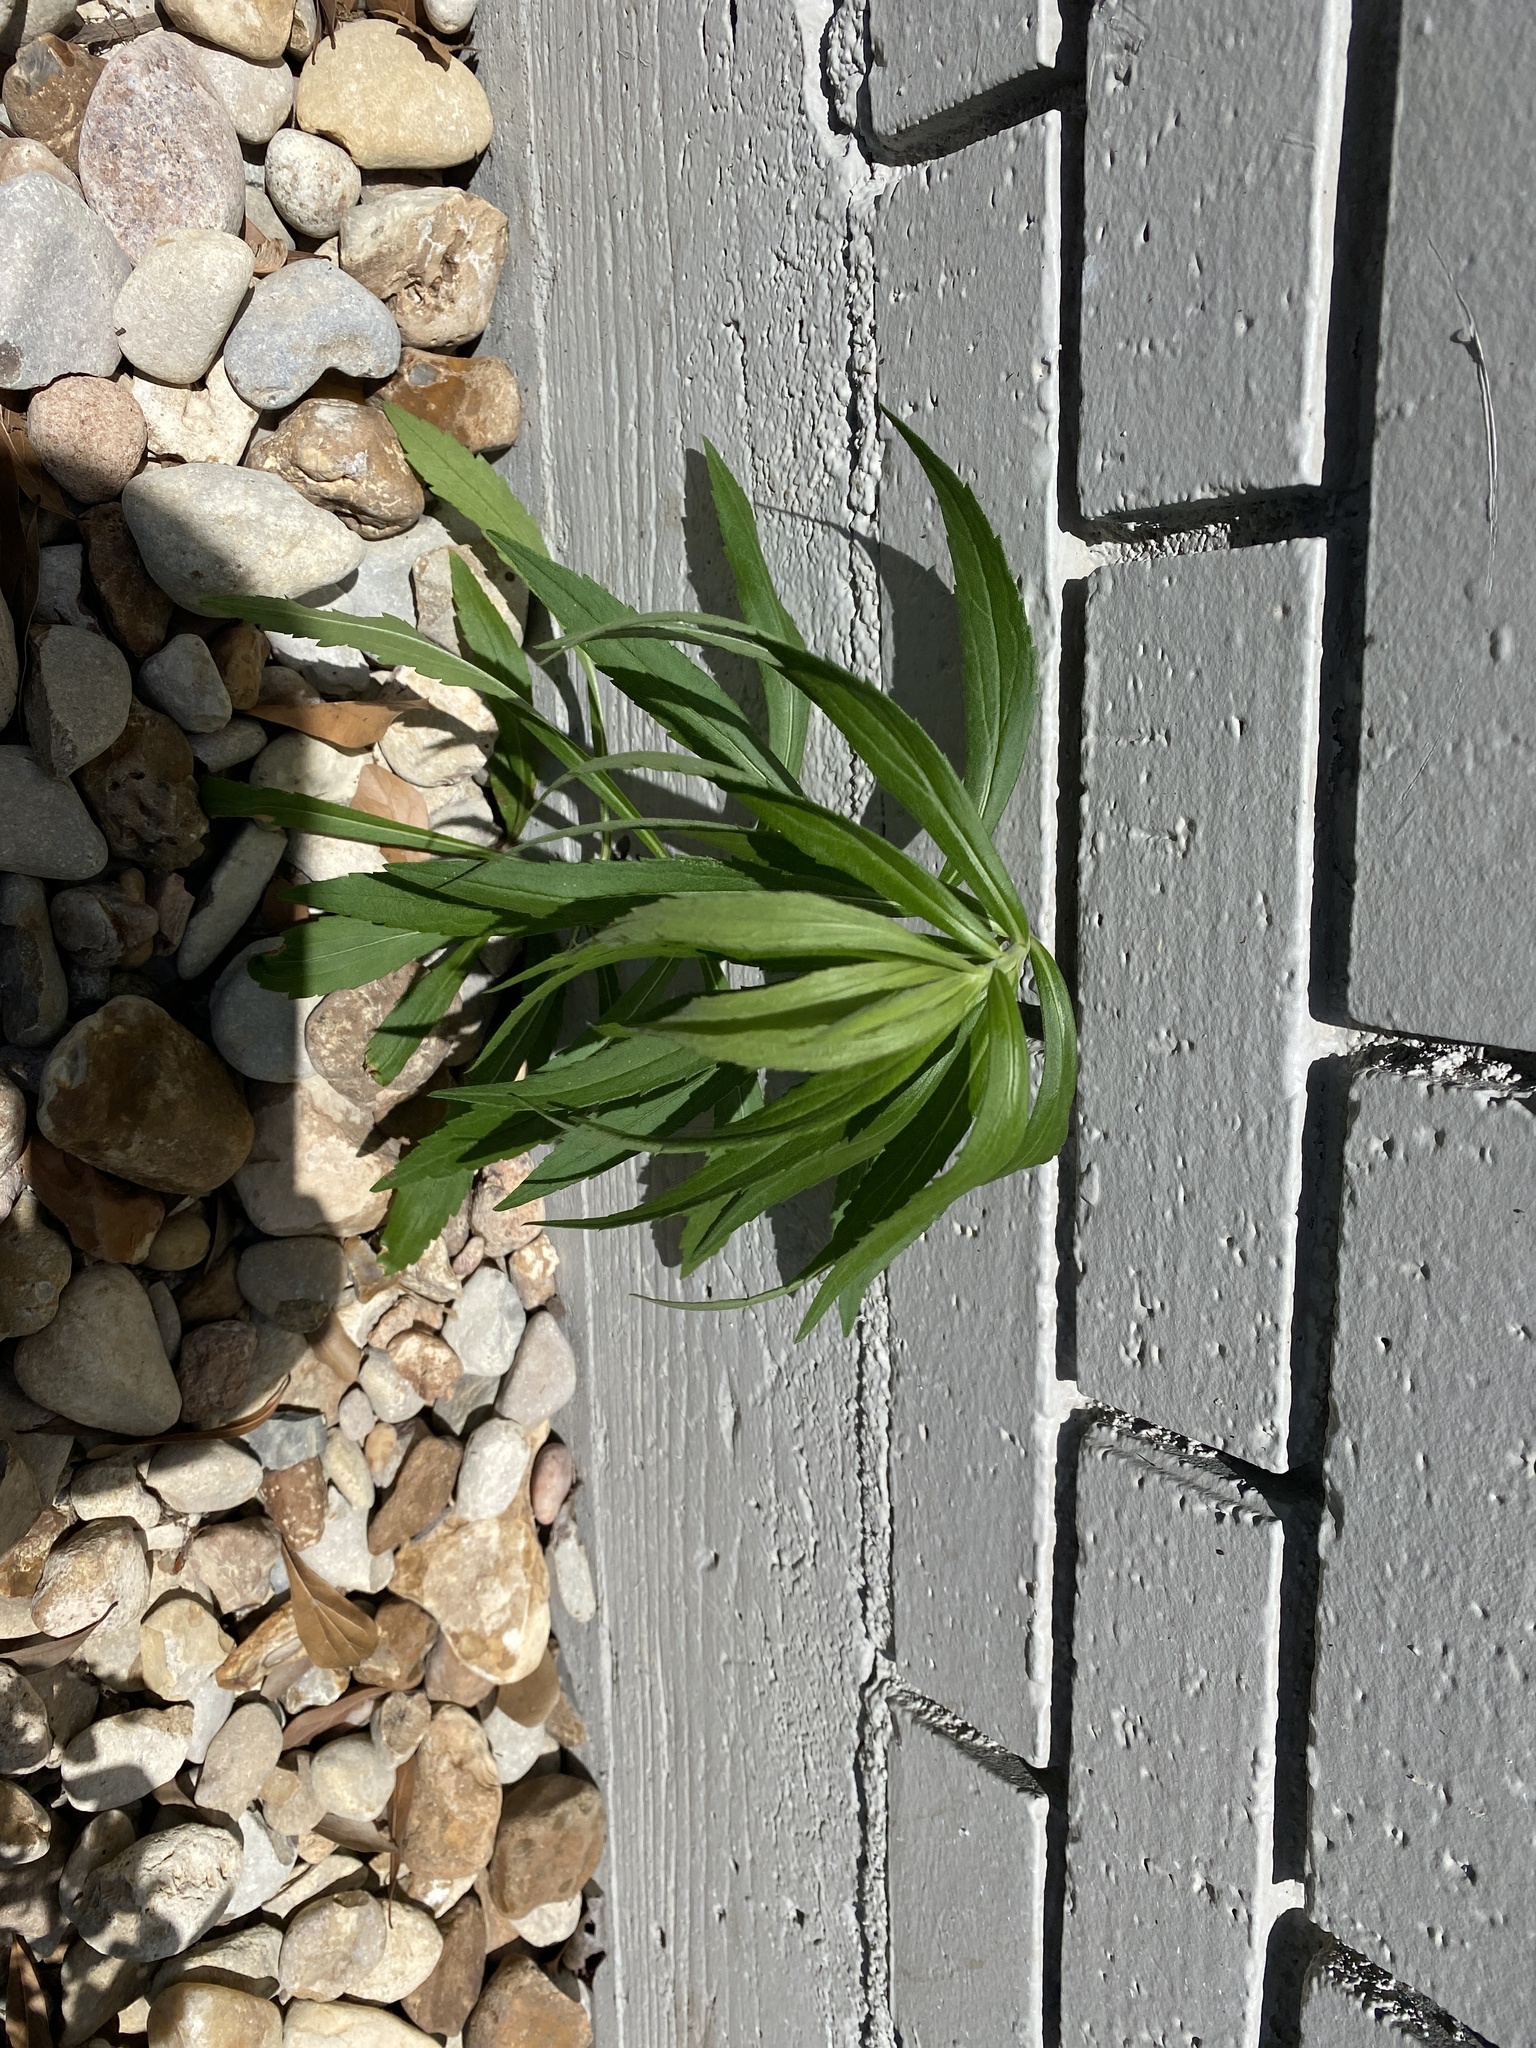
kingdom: Plantae
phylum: Tracheophyta
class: Magnoliopsida
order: Asterales
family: Asteraceae
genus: Solidago
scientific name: Solidago altissima
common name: Late goldenrod
